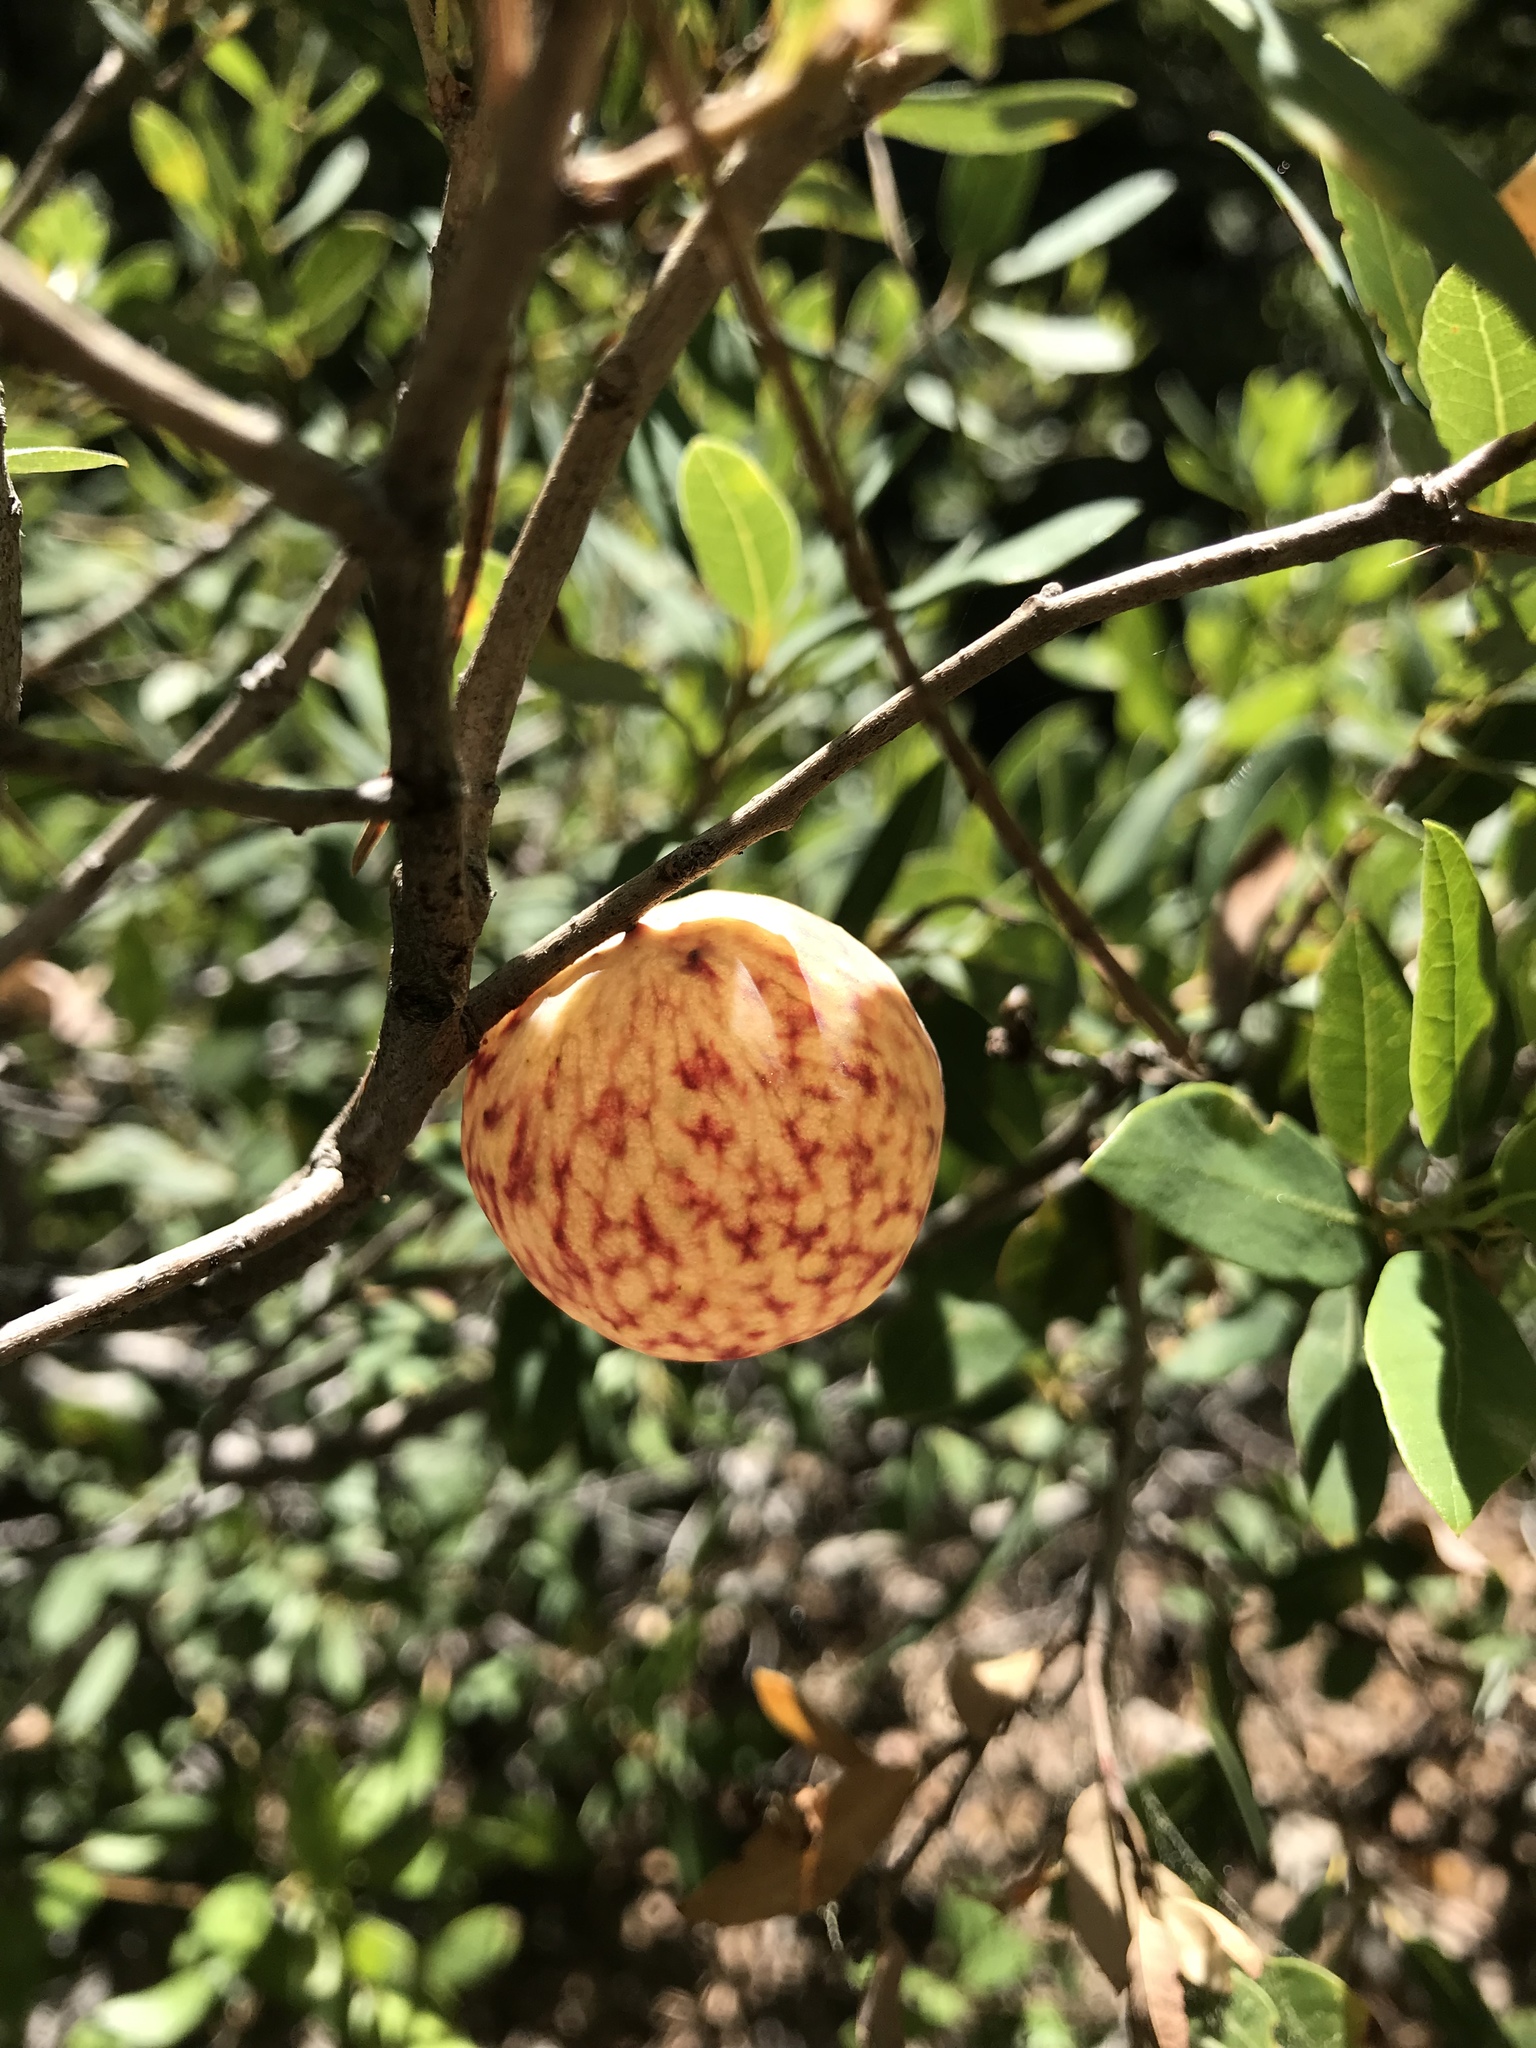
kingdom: Animalia
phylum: Arthropoda
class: Insecta
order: Hymenoptera
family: Cynipidae
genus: Andricus
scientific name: Andricus
